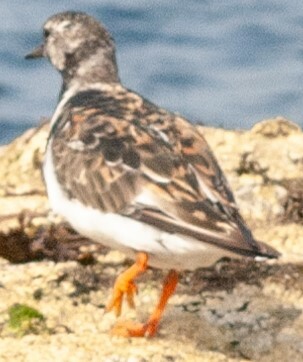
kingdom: Animalia
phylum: Chordata
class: Aves
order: Charadriiformes
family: Scolopacidae
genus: Arenaria
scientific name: Arenaria interpres
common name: Ruddy turnstone
